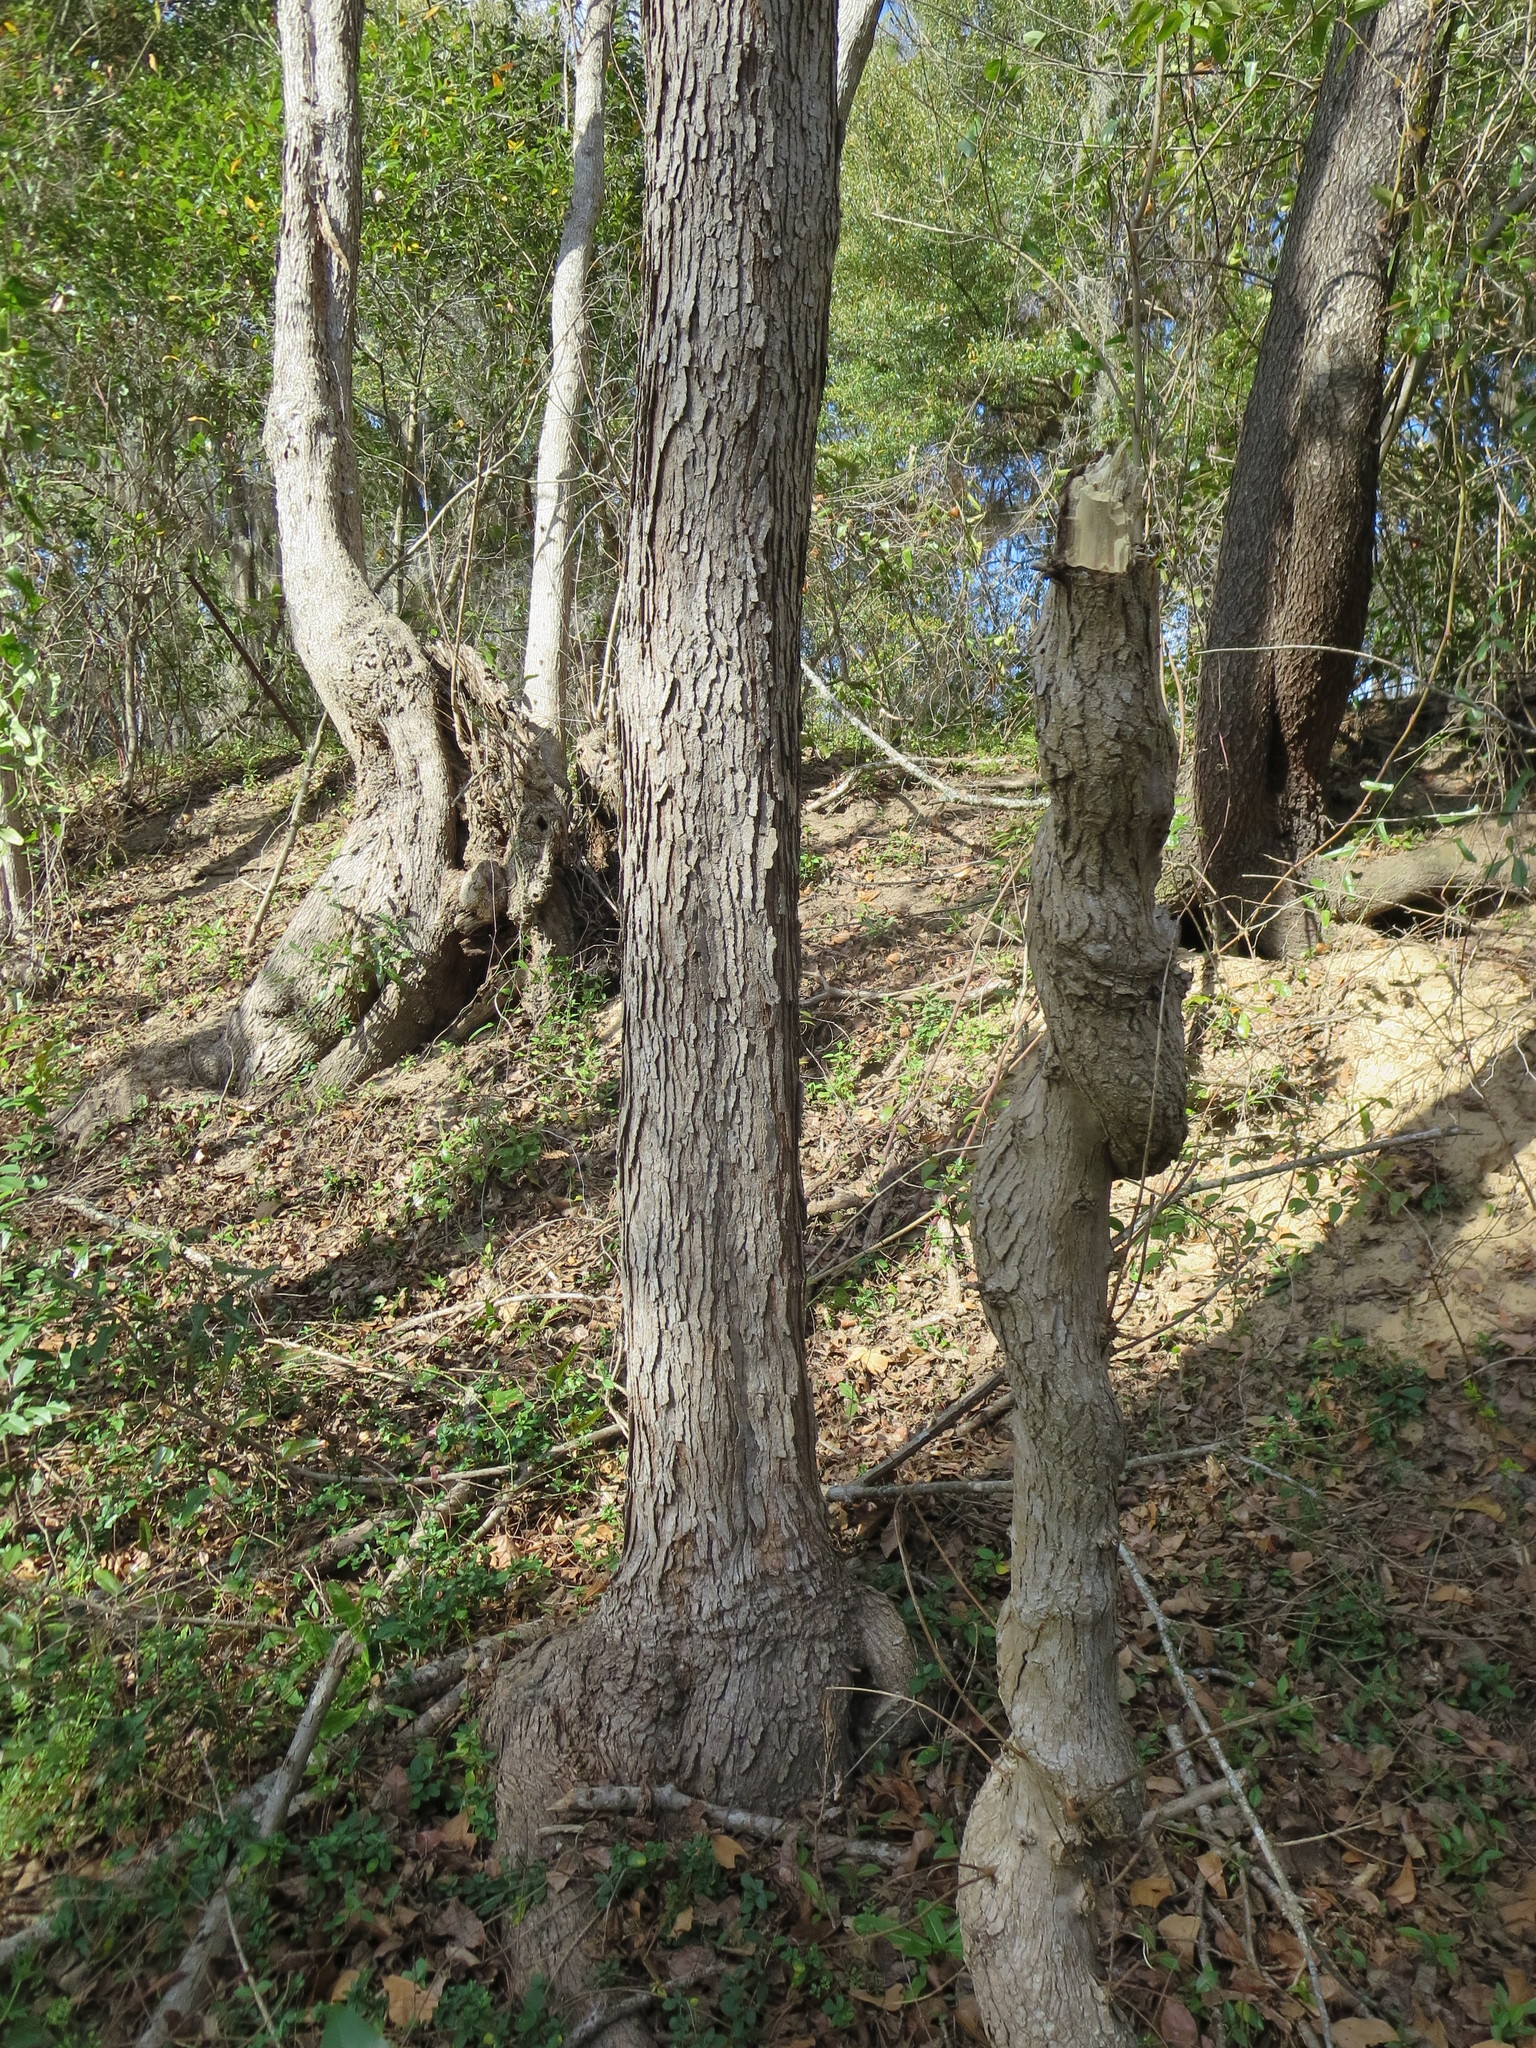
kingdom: Plantae
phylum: Tracheophyta
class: Magnoliopsida
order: Malpighiales
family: Euphorbiaceae
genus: Triadica
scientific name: Triadica sebifera
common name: Chinese tallow
